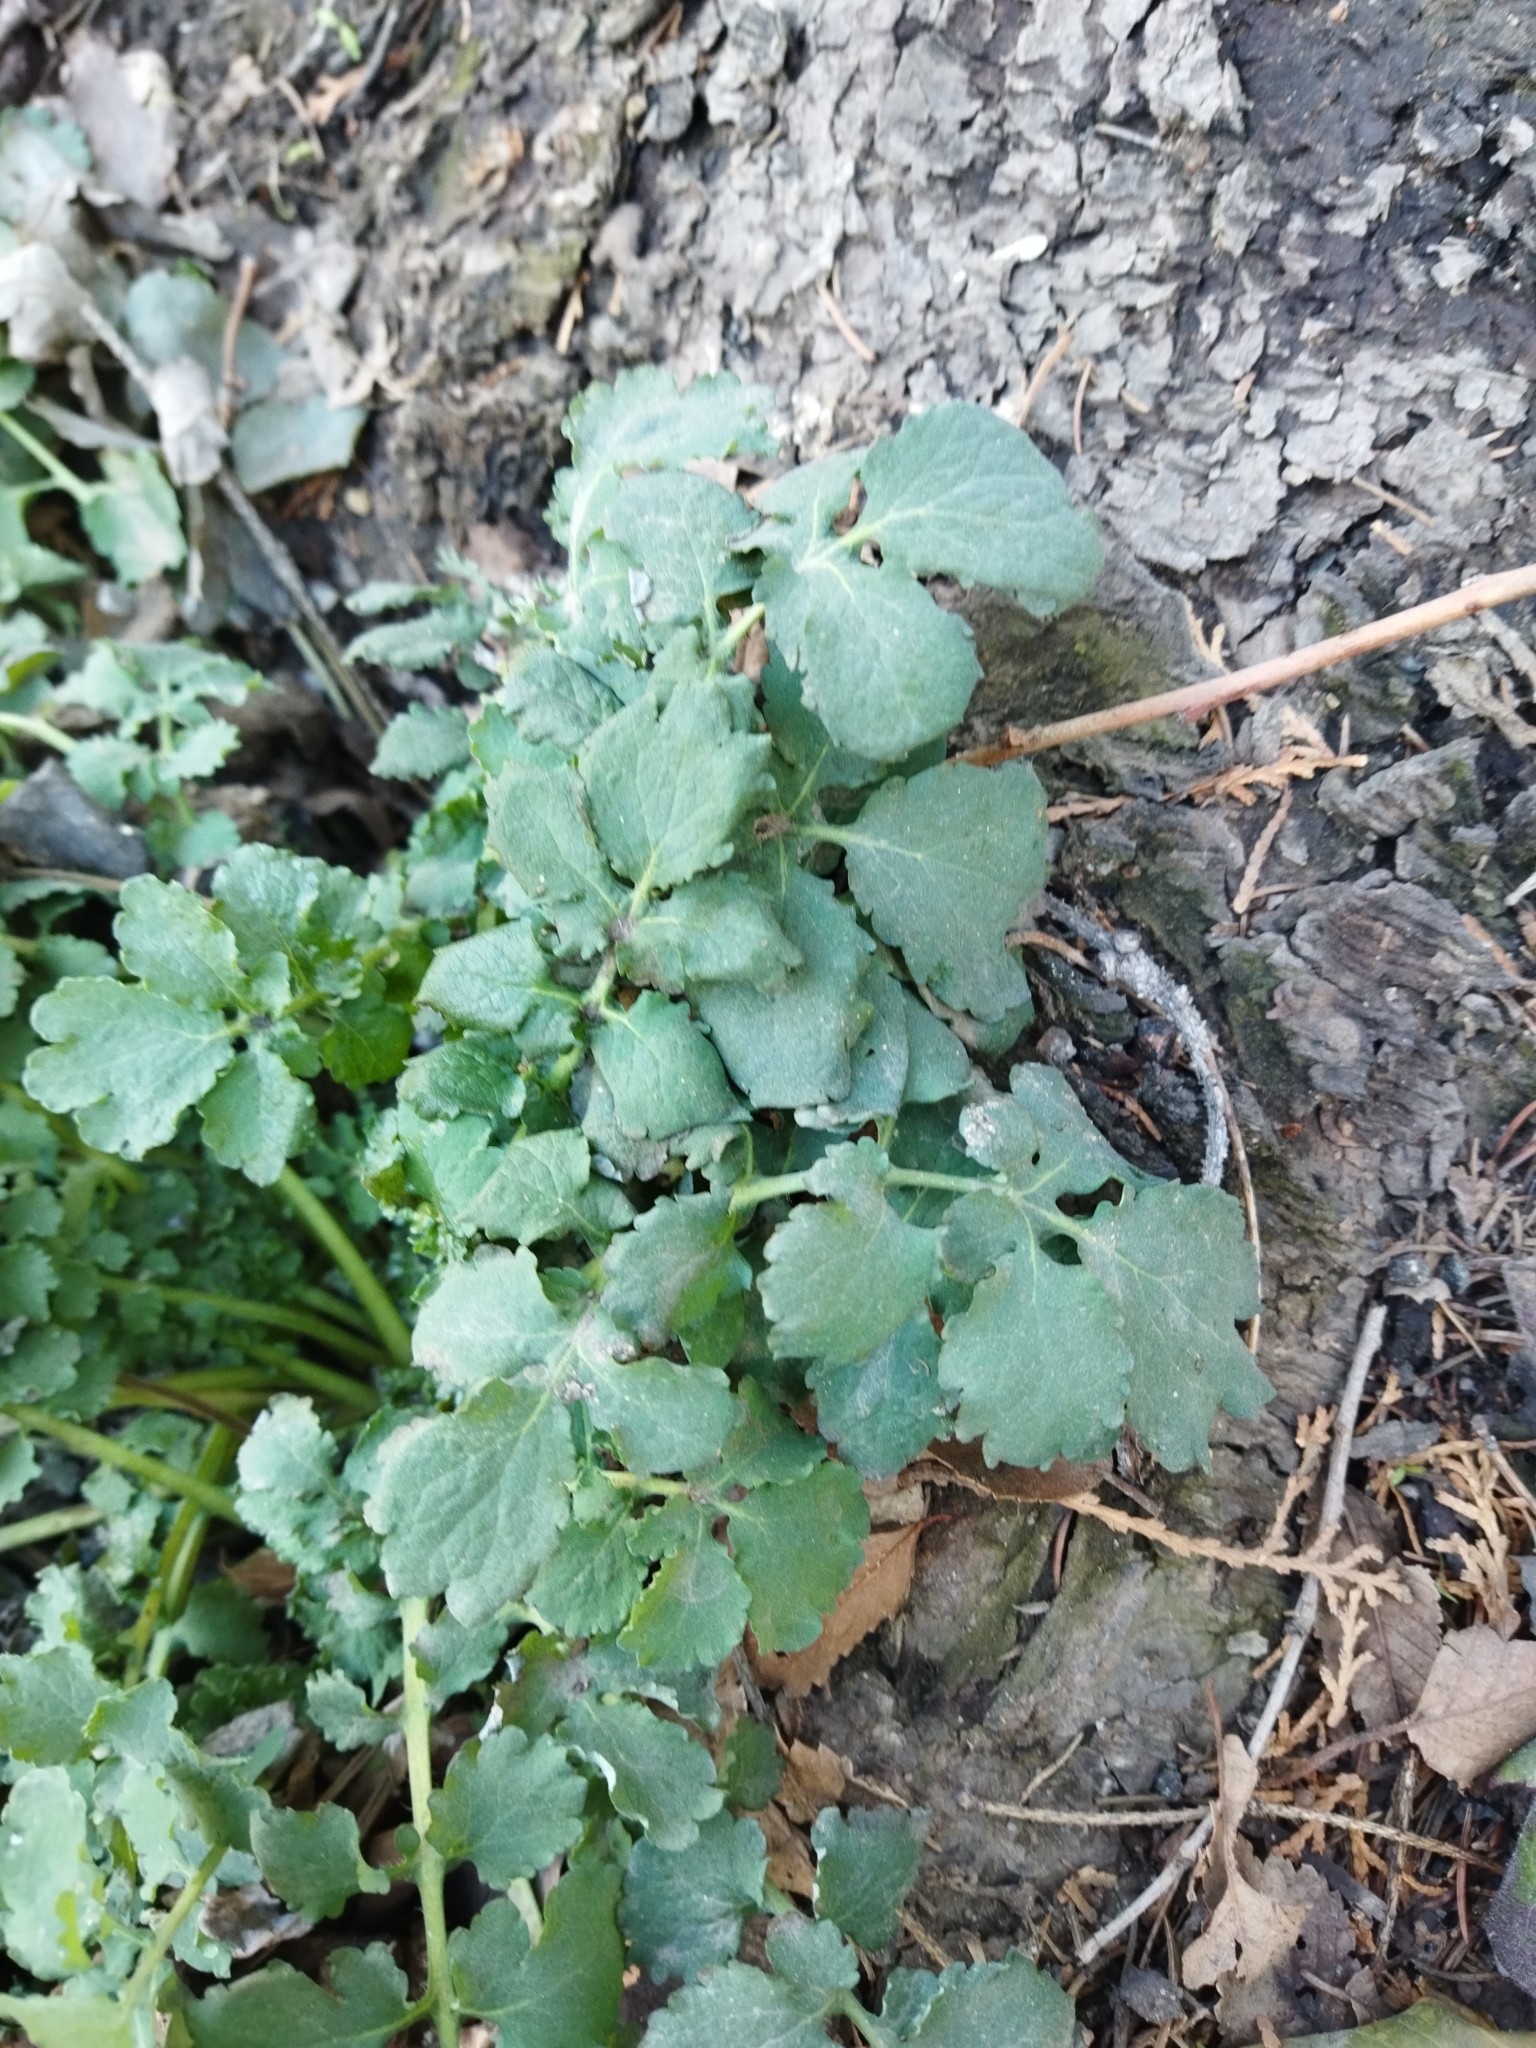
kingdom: Plantae
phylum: Tracheophyta
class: Magnoliopsida
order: Ranunculales
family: Papaveraceae
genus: Chelidonium
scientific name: Chelidonium majus
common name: Greater celandine
